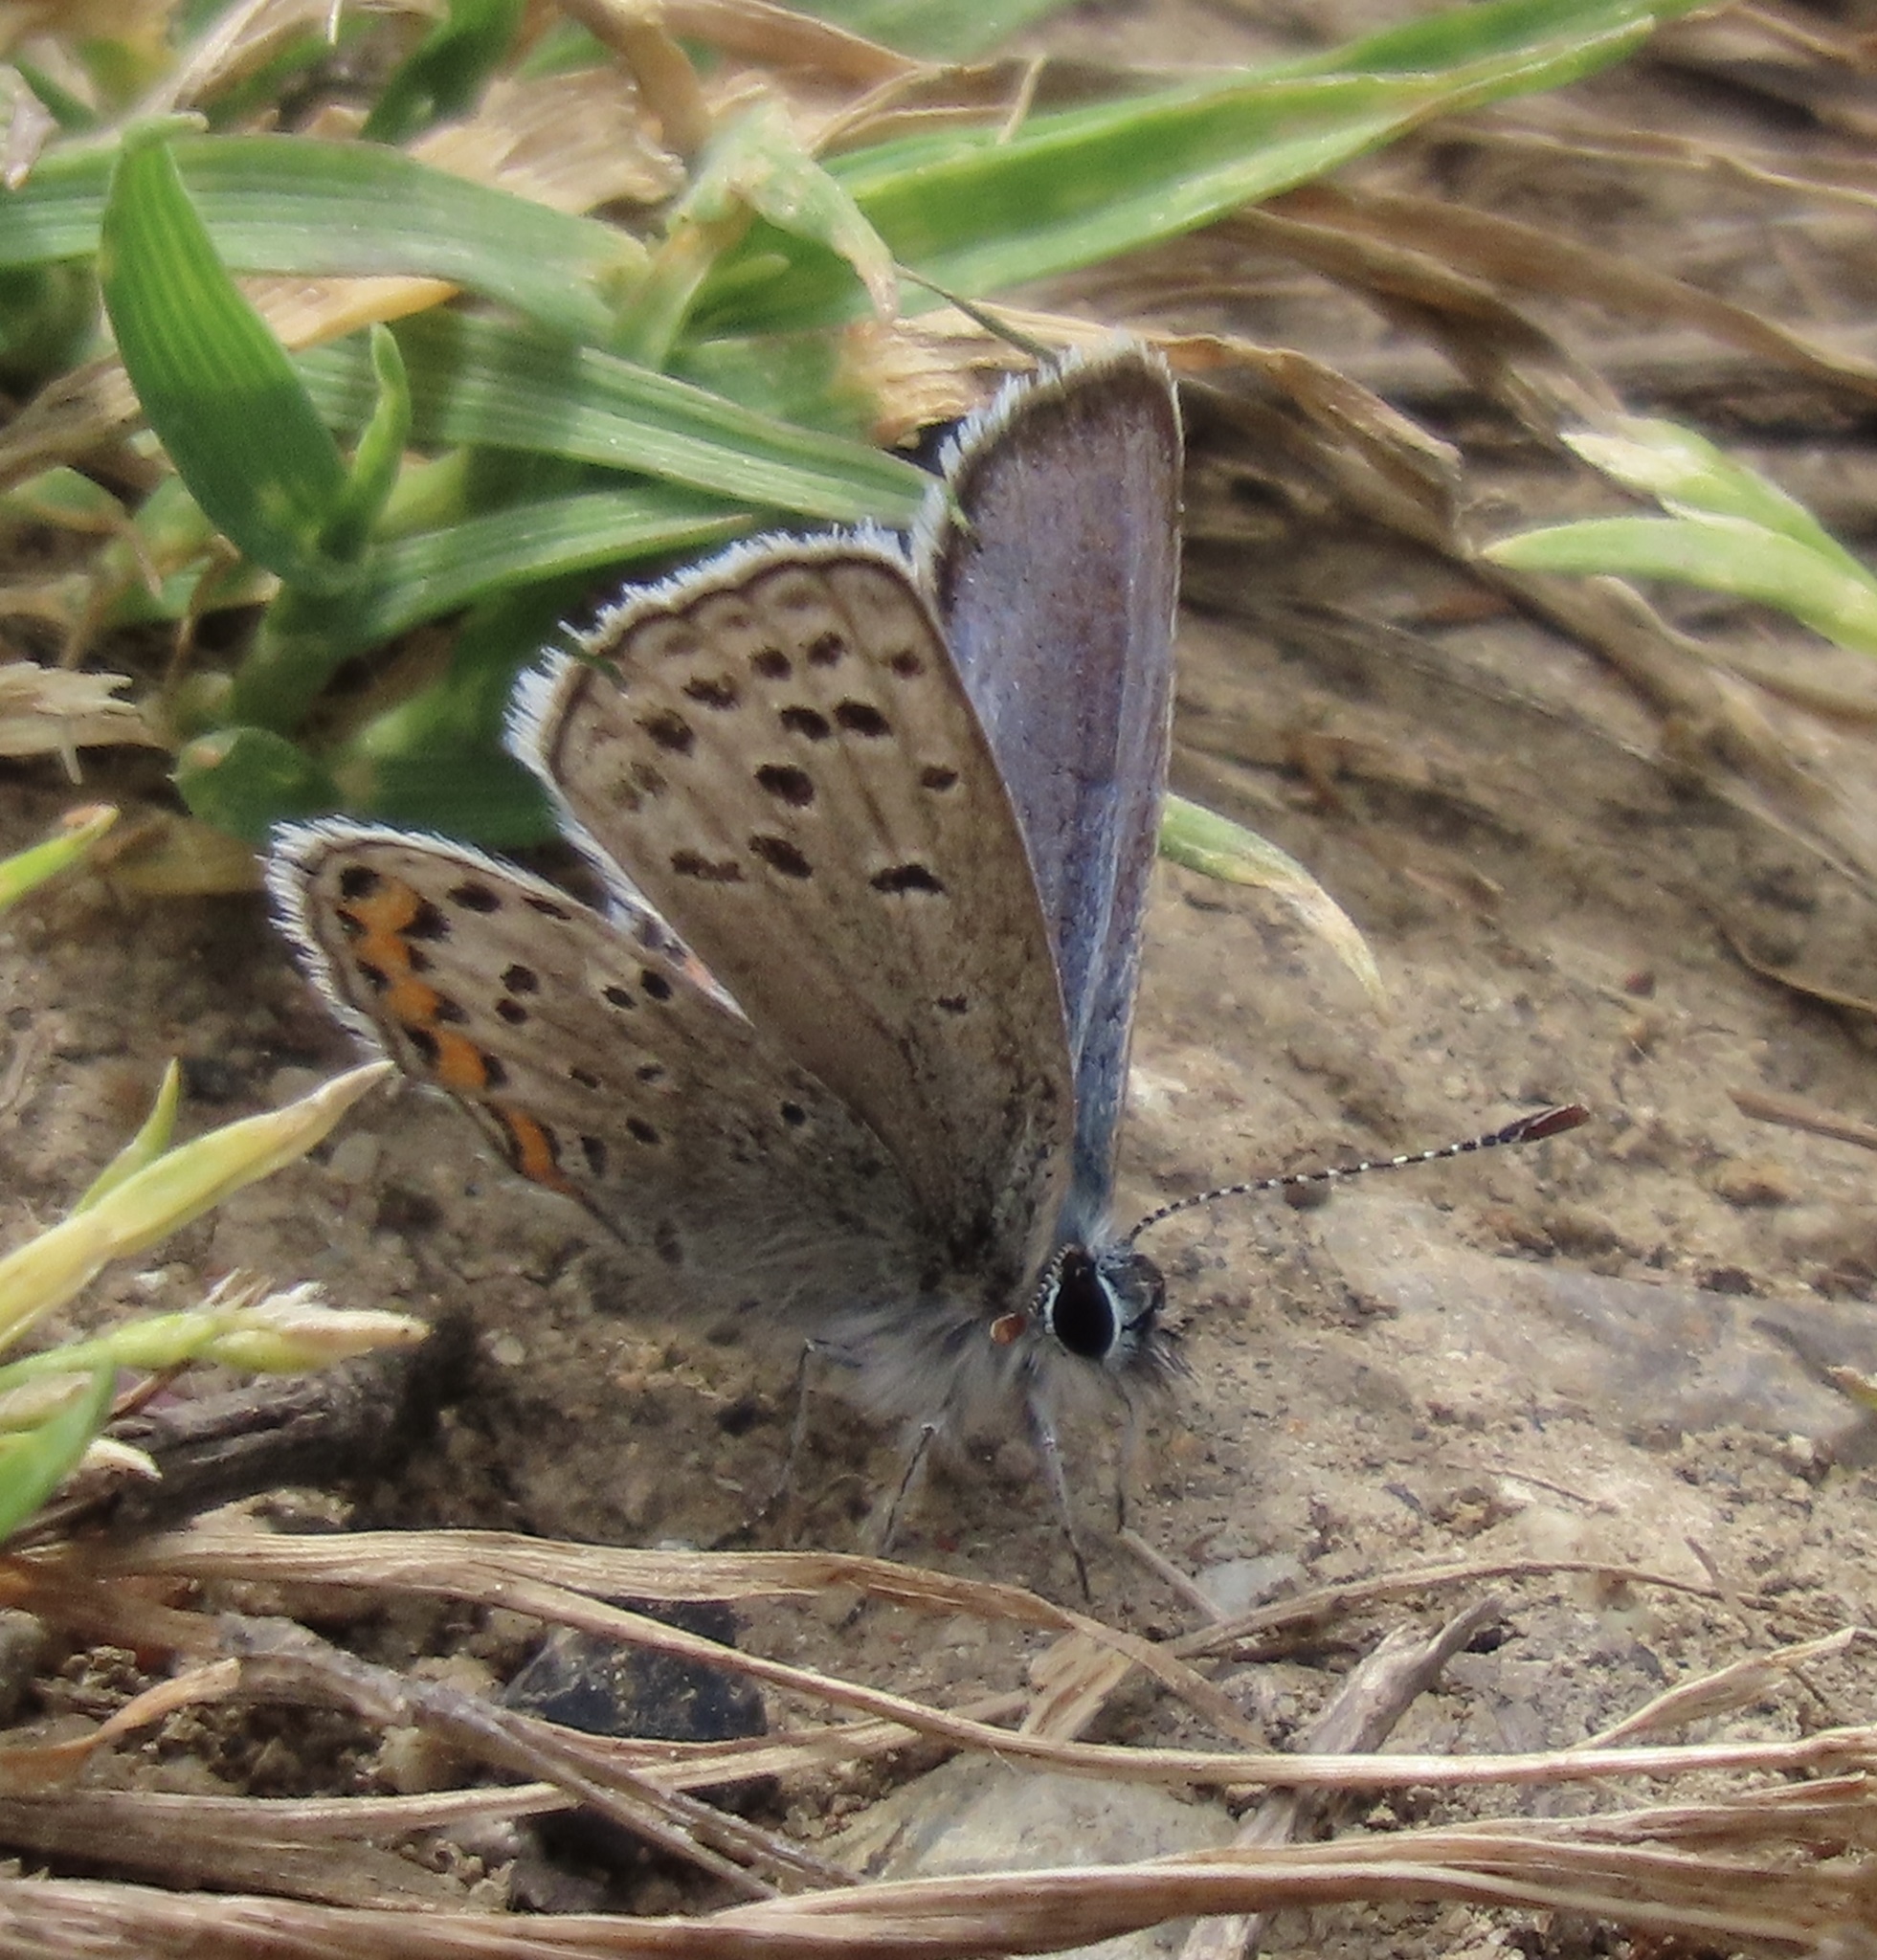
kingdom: Animalia
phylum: Arthropoda
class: Insecta
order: Lepidoptera
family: Lycaenidae
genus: Icaricia
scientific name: Icaricia acmon
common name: Acmon blue
